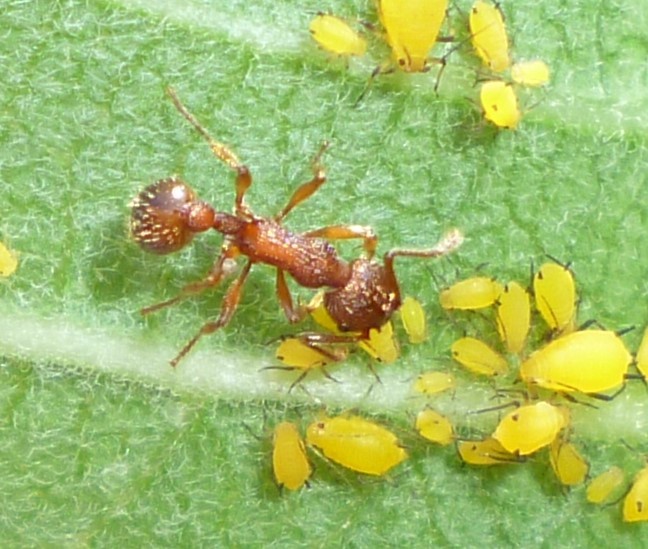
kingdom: Animalia
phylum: Arthropoda
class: Insecta
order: Hymenoptera
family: Formicidae
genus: Myrmica
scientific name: Myrmica
